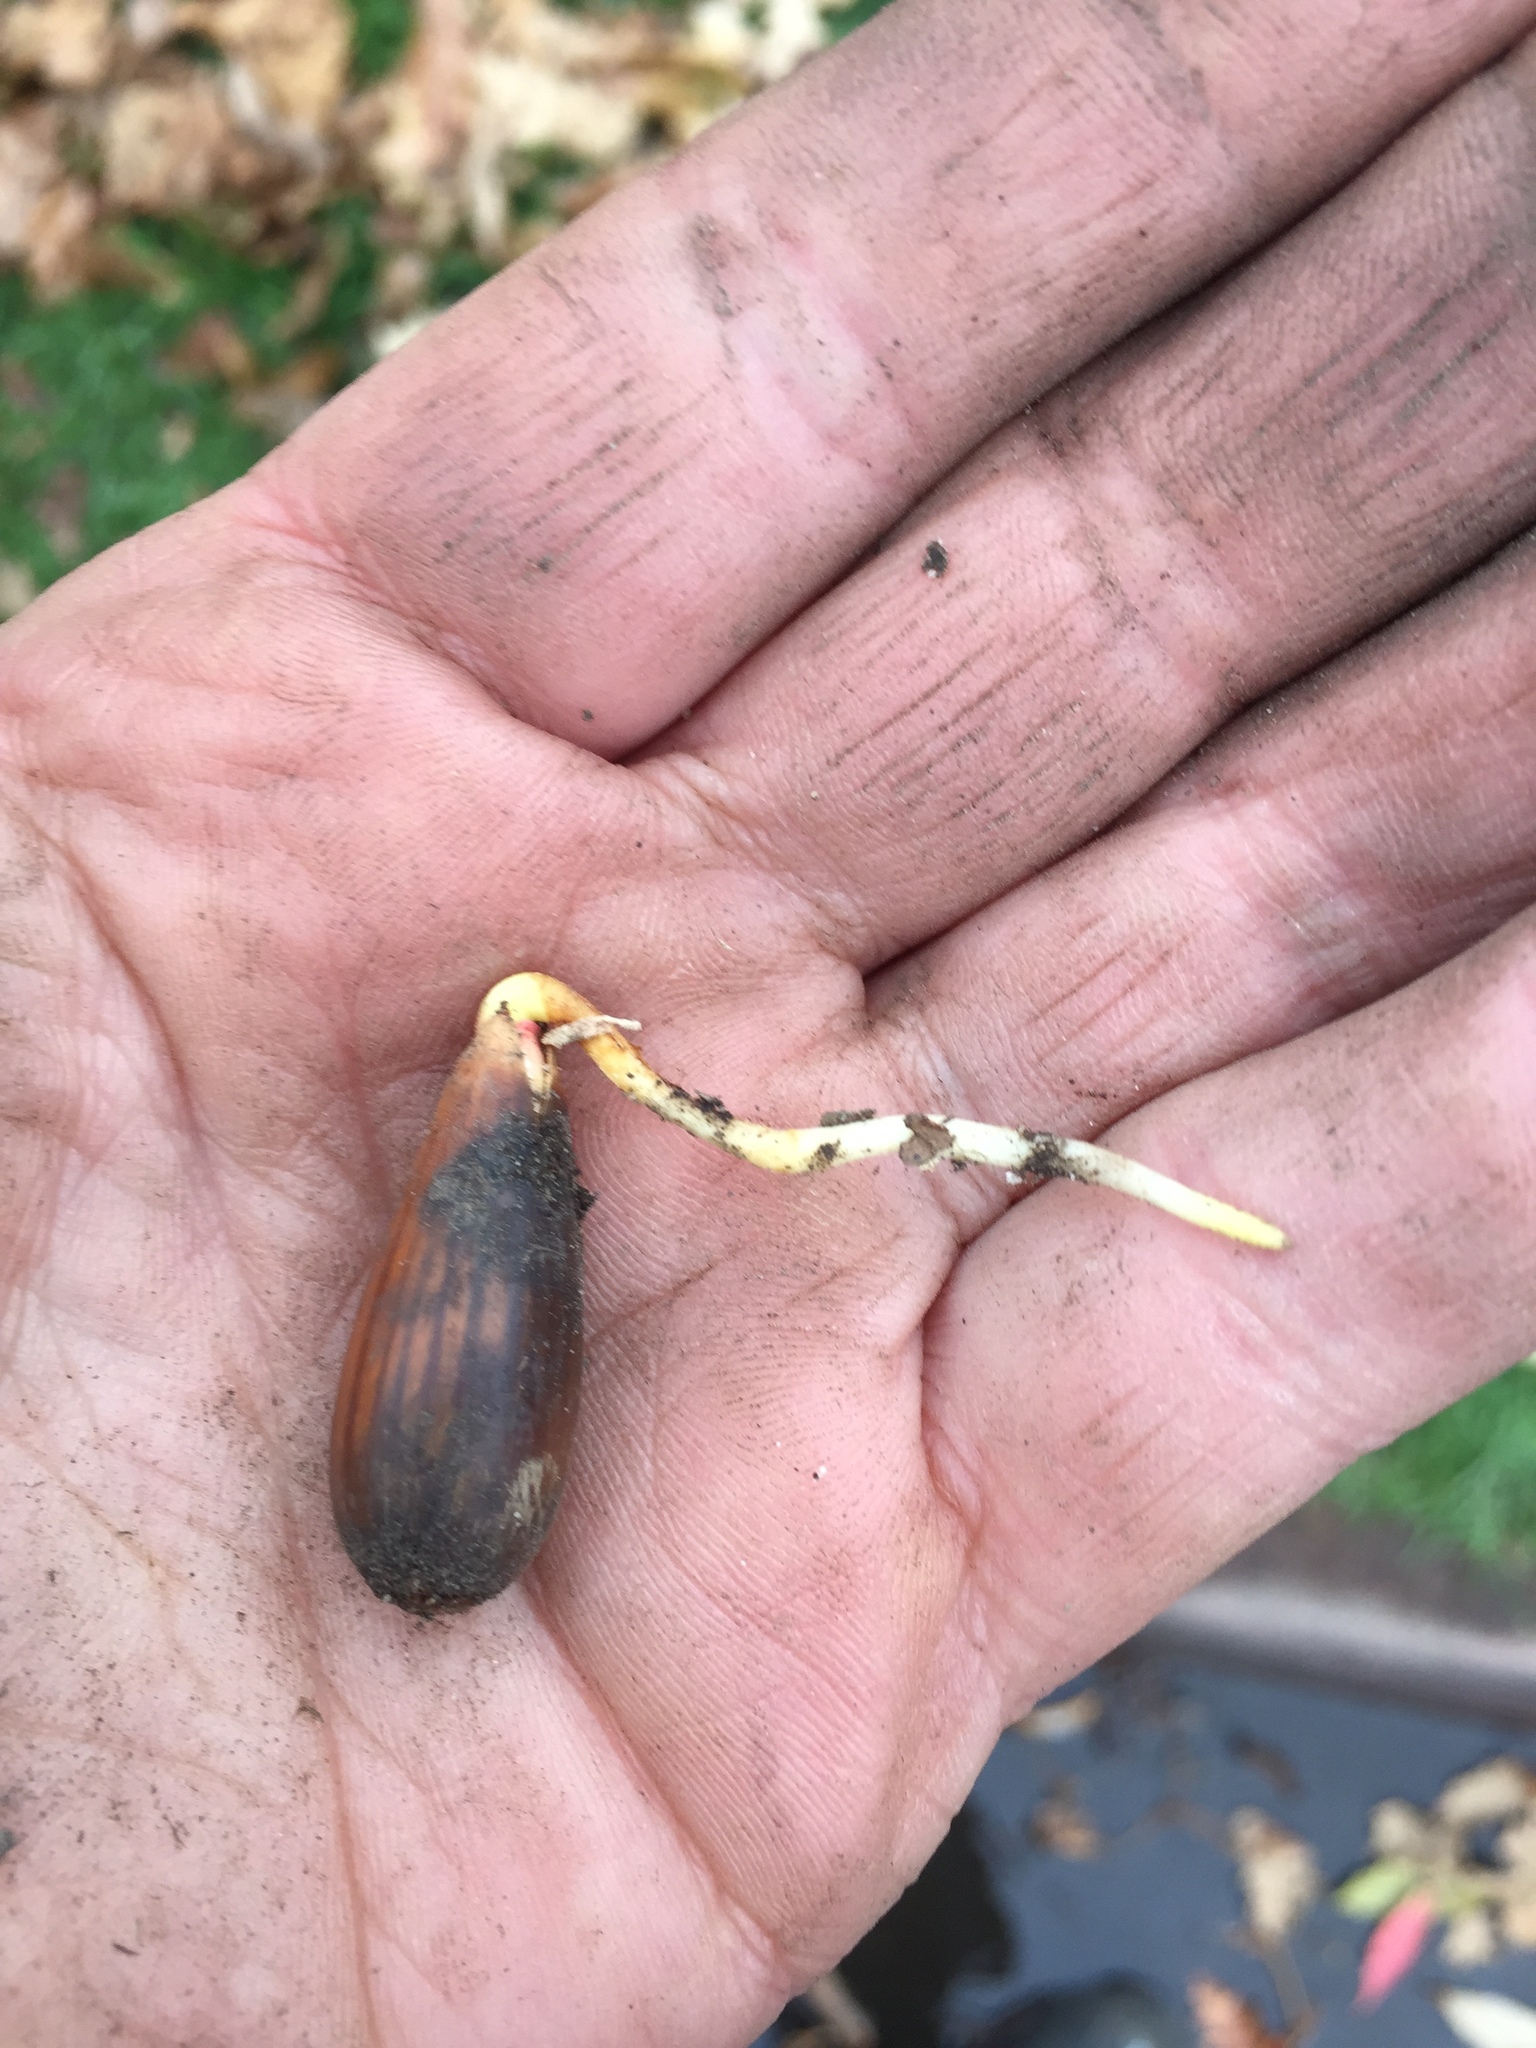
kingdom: Plantae
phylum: Tracheophyta
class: Magnoliopsida
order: Fagales
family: Fagaceae
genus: Quercus
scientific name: Quercus agrifolia
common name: California live oak
